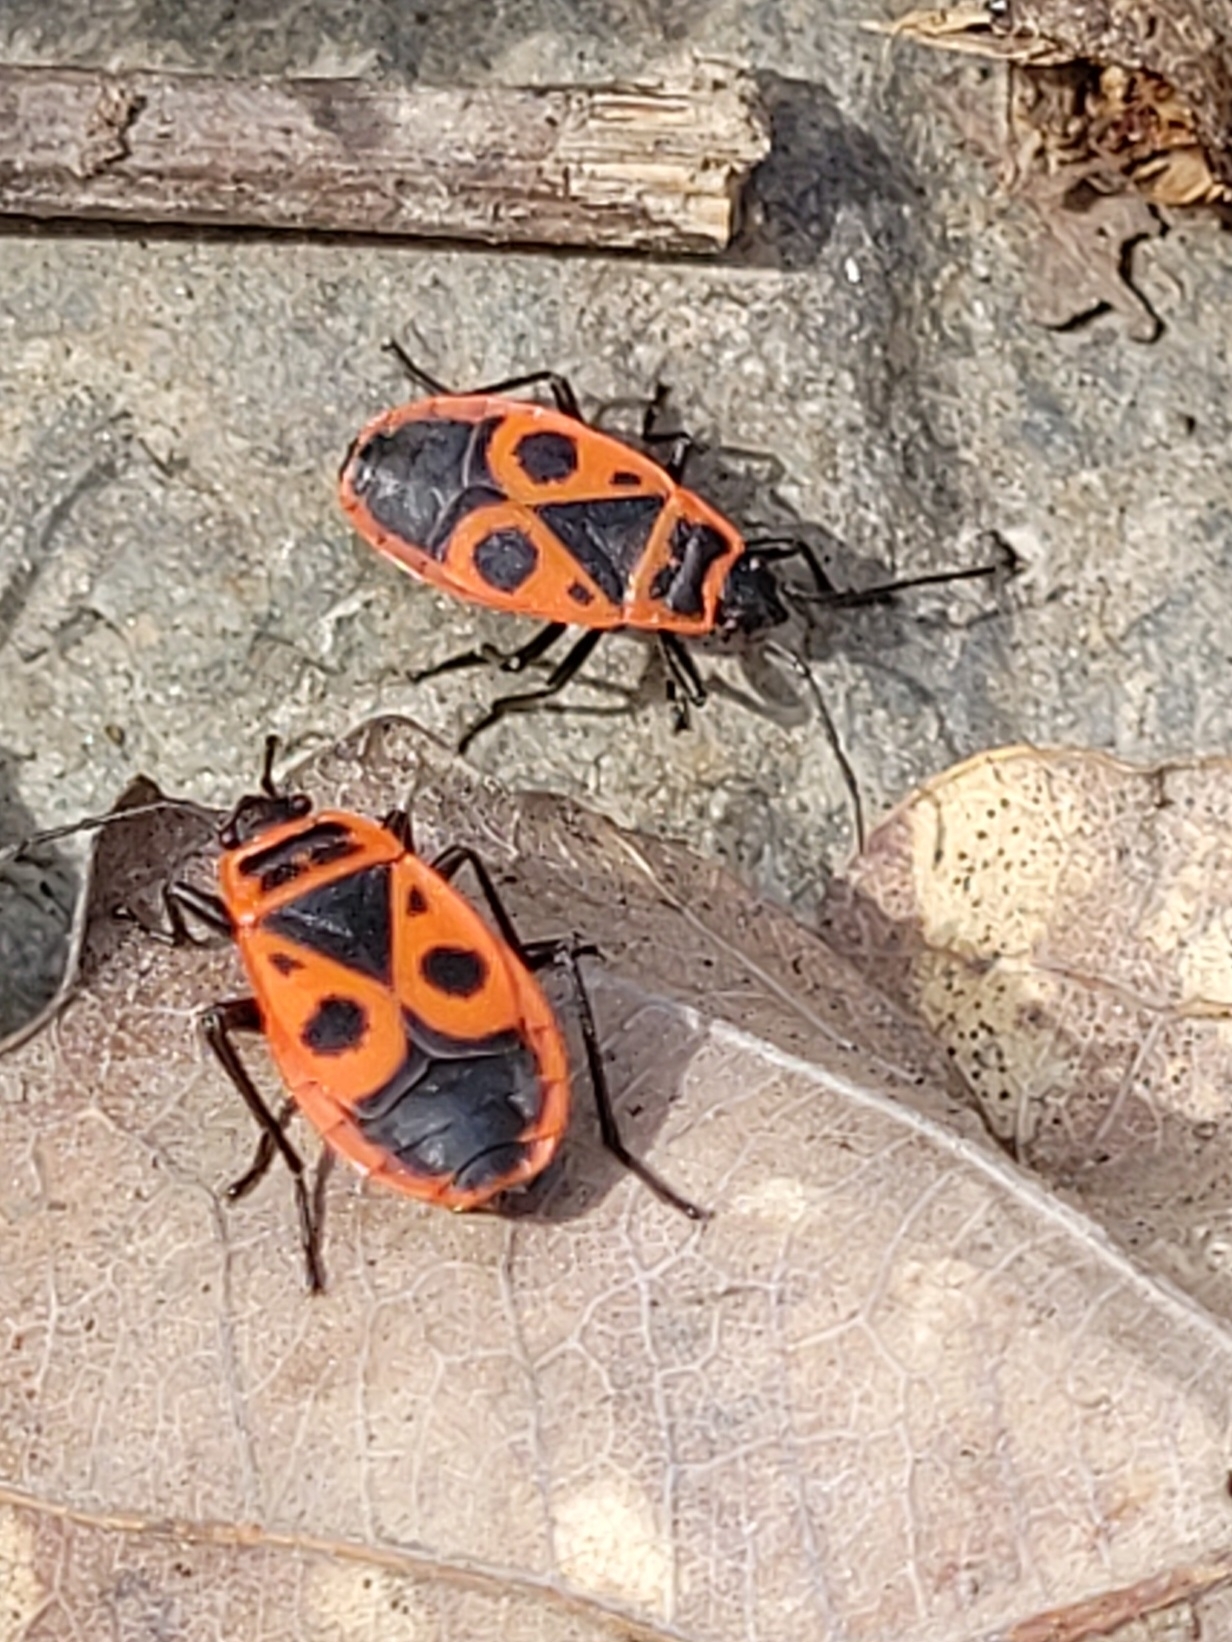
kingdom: Animalia
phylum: Arthropoda
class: Insecta
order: Hemiptera
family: Pyrrhocoridae
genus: Pyrrhocoris
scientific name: Pyrrhocoris apterus
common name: Firebug
